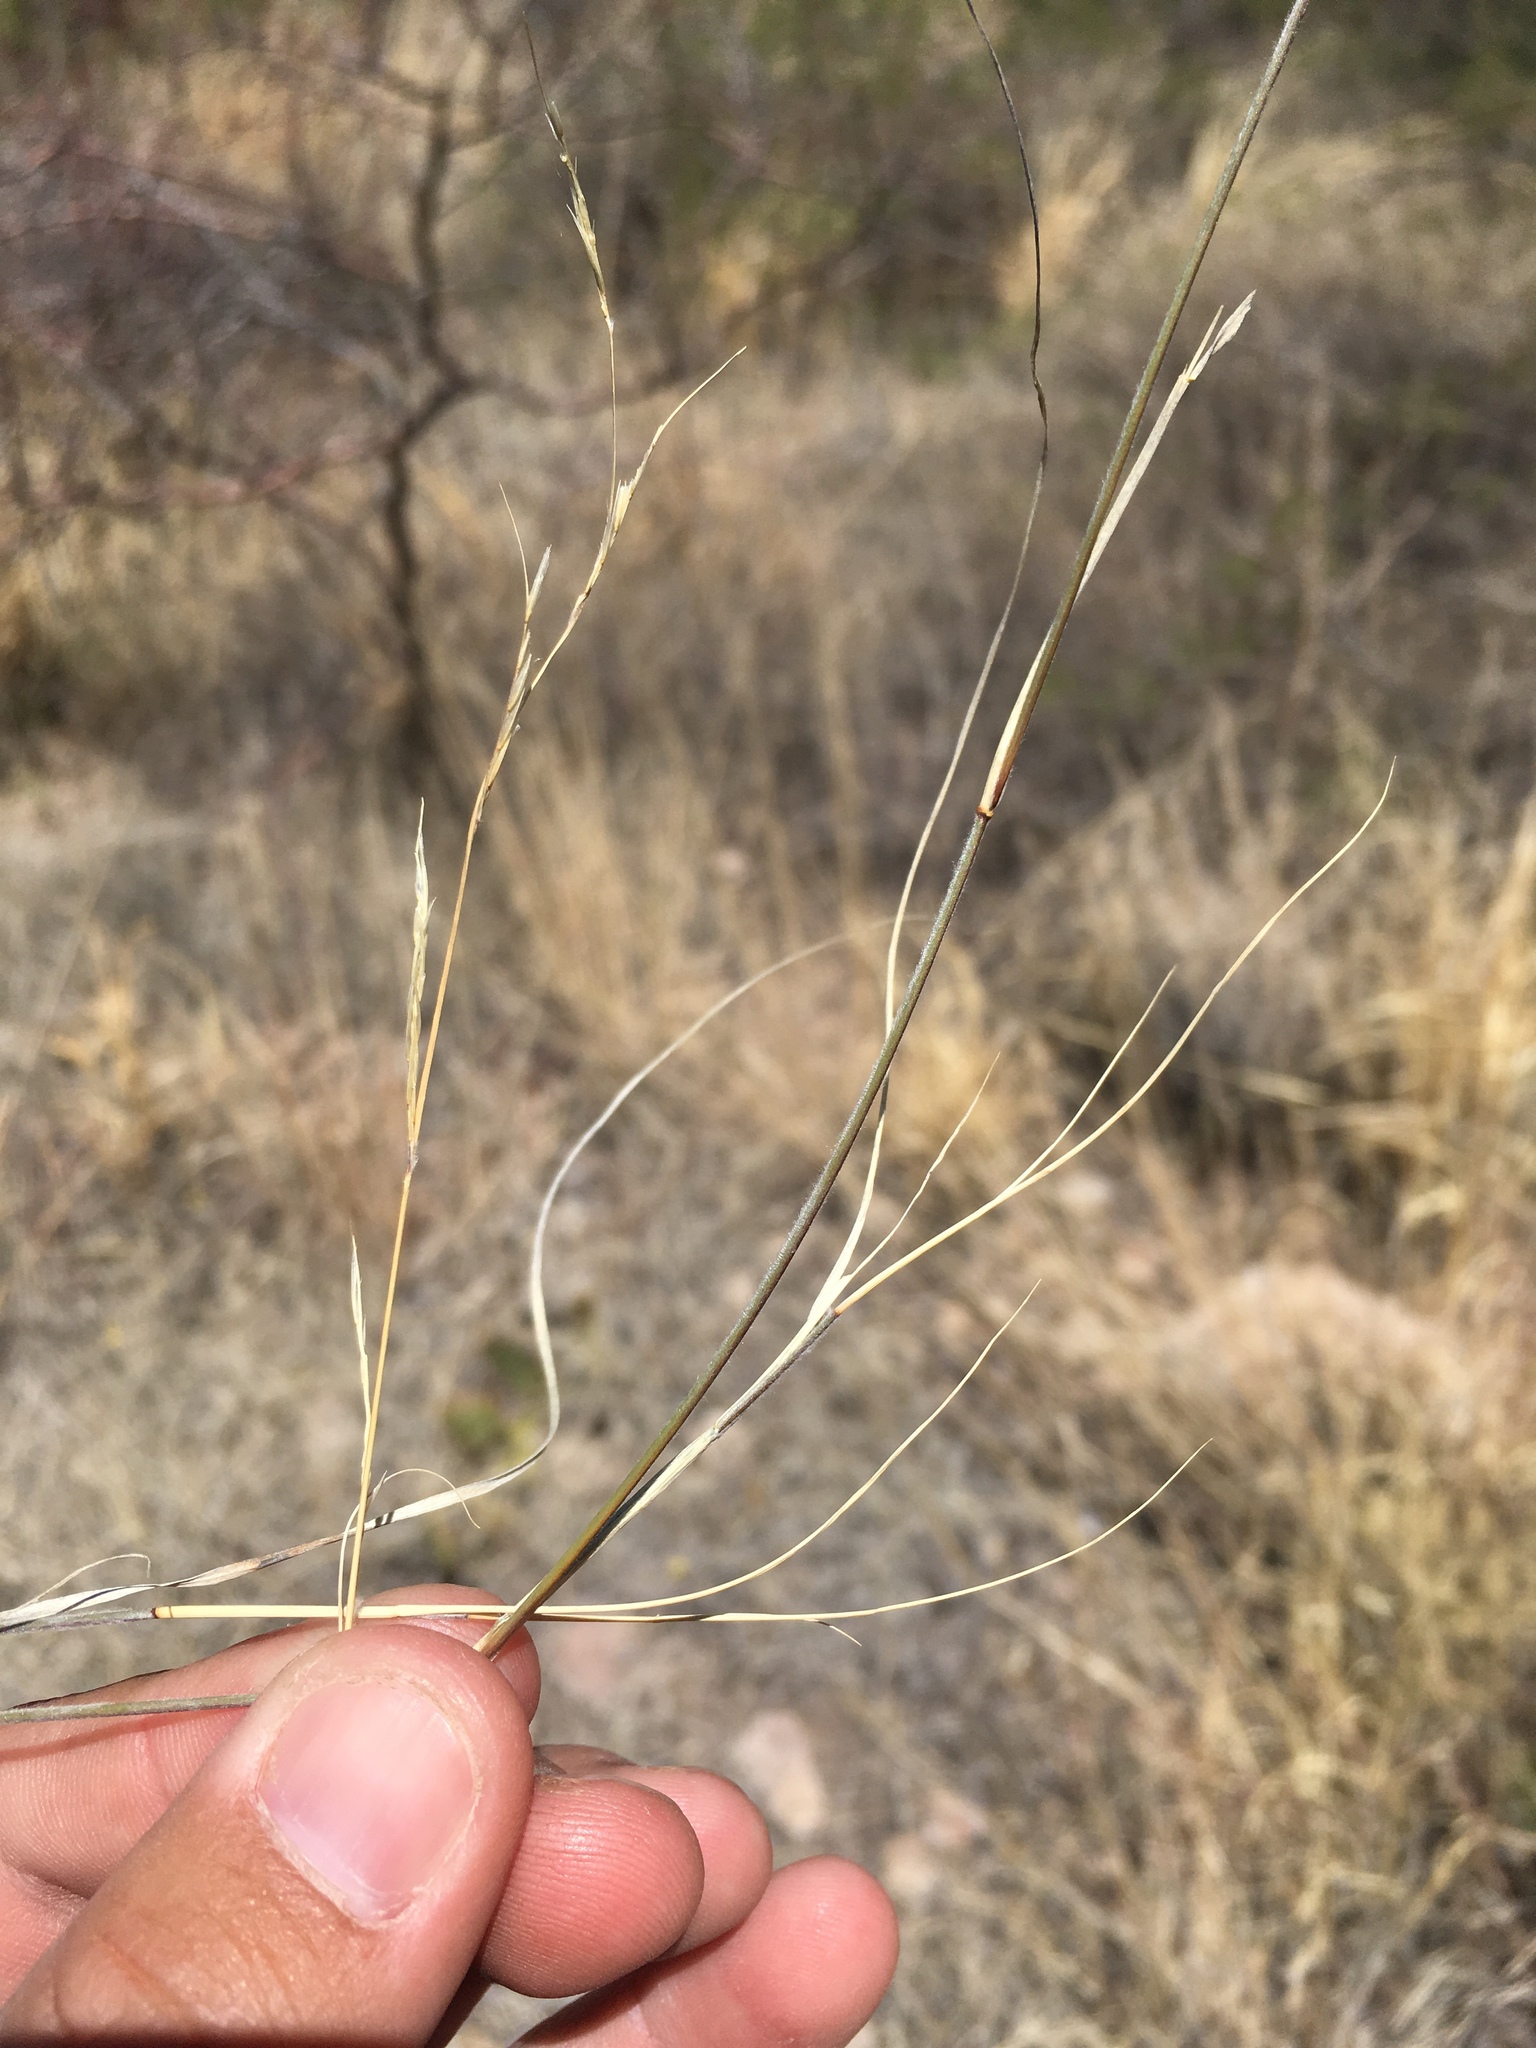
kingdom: Plantae
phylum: Tracheophyta
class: Liliopsida
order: Poales
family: Poaceae
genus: Bouteloua
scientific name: Bouteloua eriopoda
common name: Woolly foot grama
